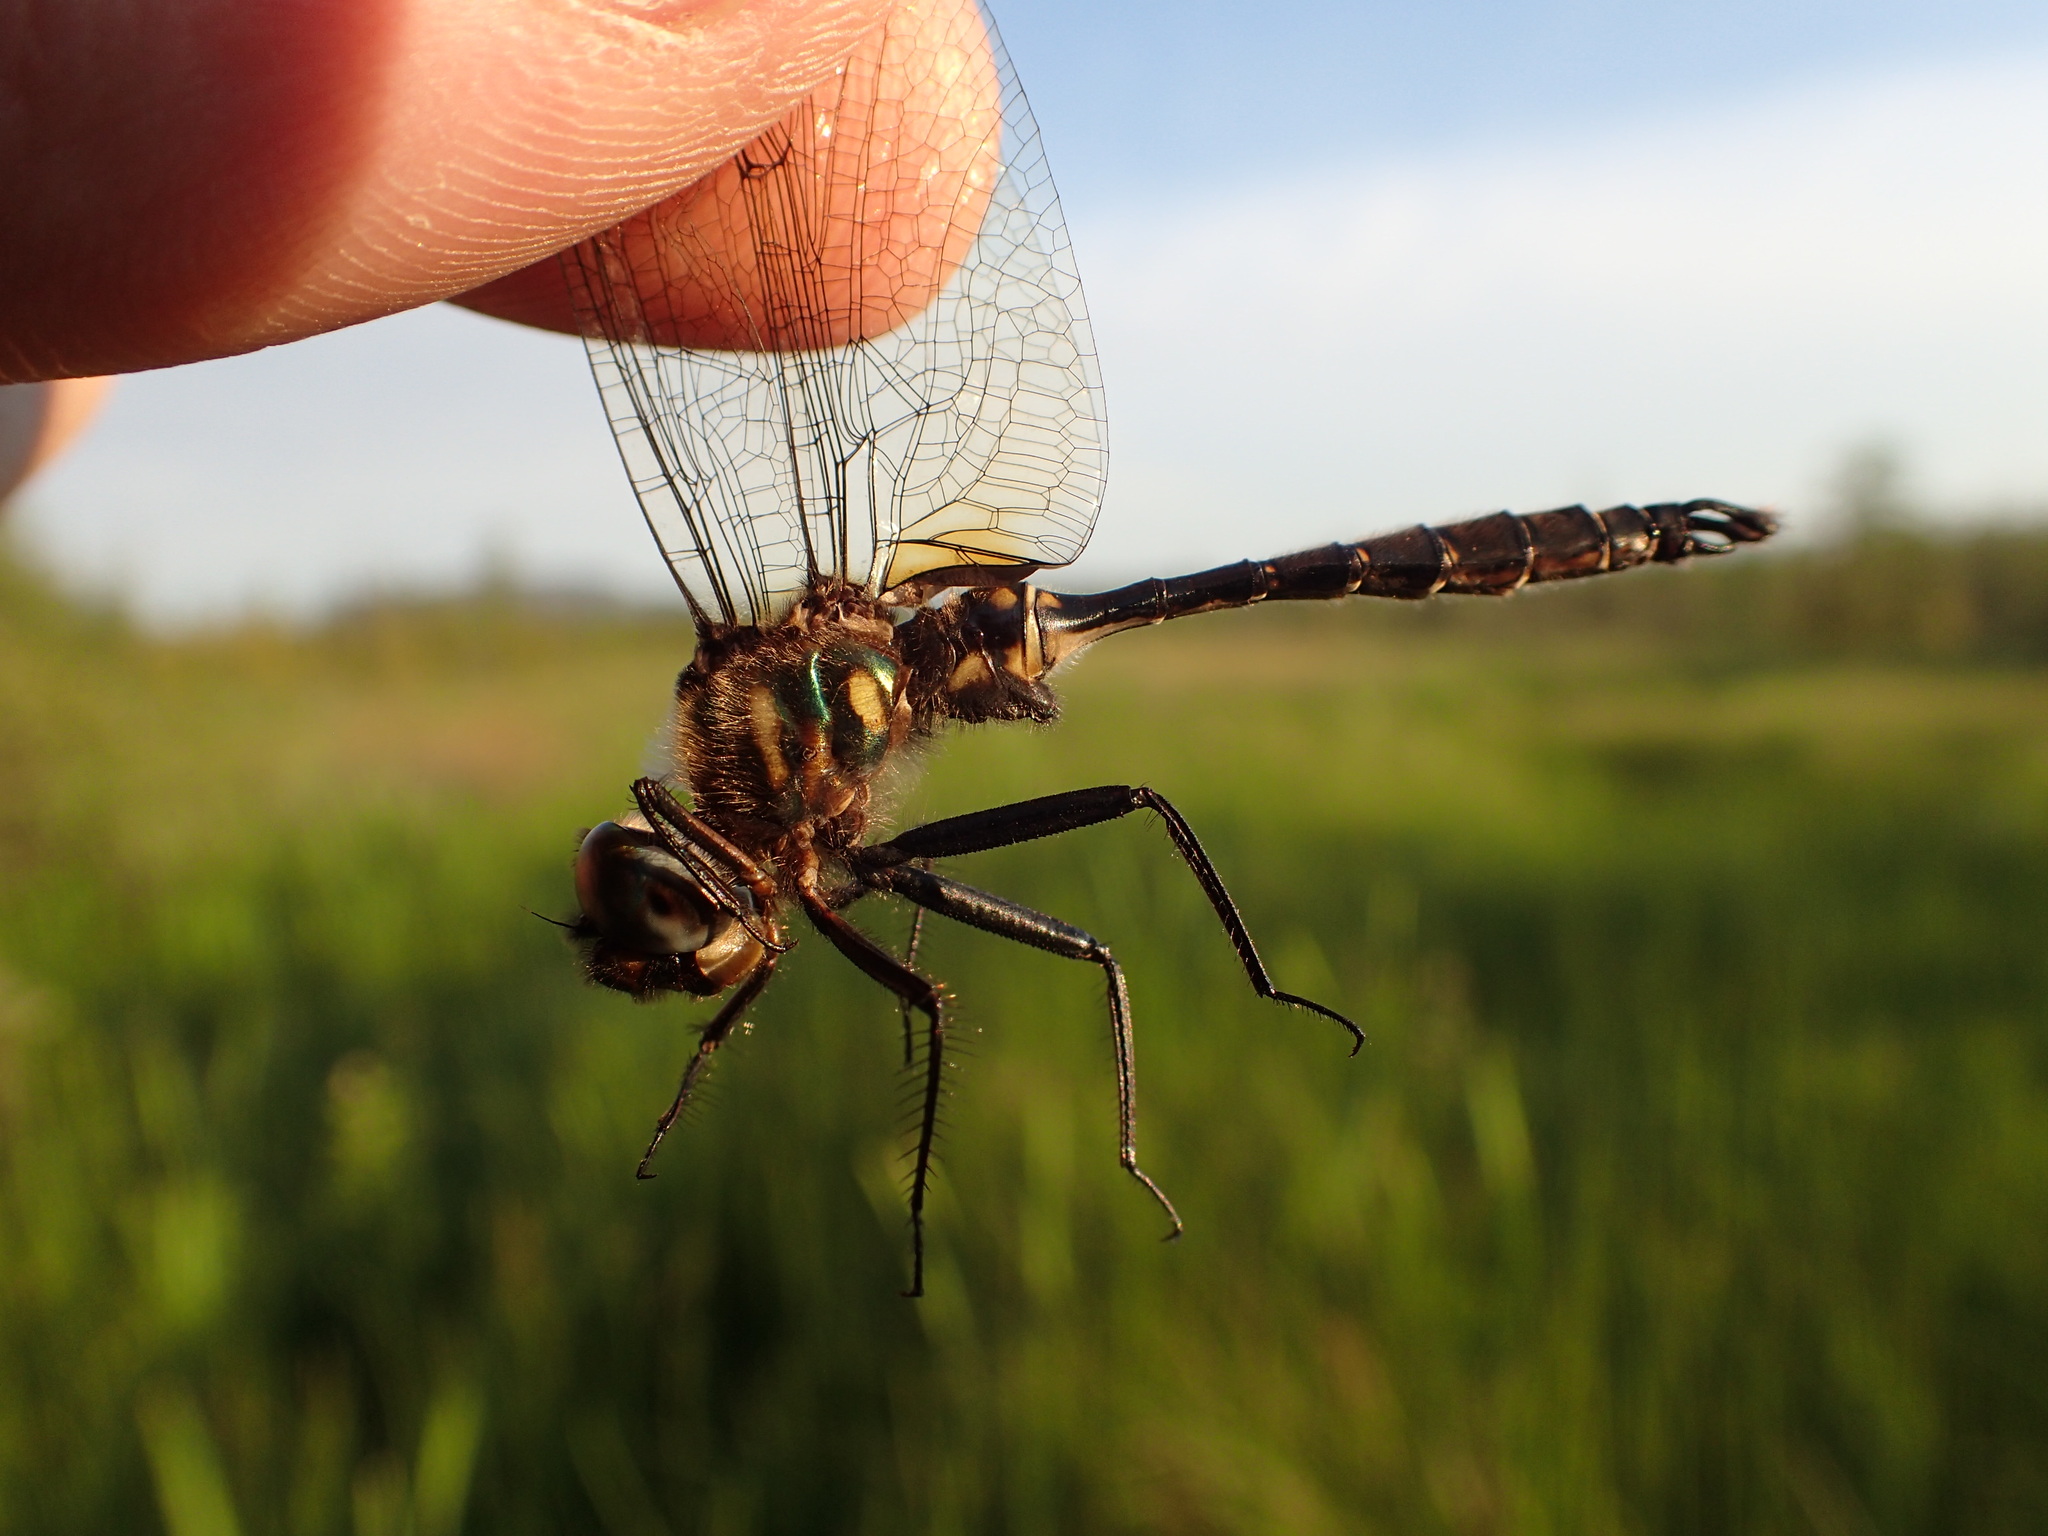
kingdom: Animalia
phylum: Arthropoda
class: Insecta
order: Odonata
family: Corduliidae
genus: Somatochlora
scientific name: Somatochlora walshii
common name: Brush-tipped emerald
